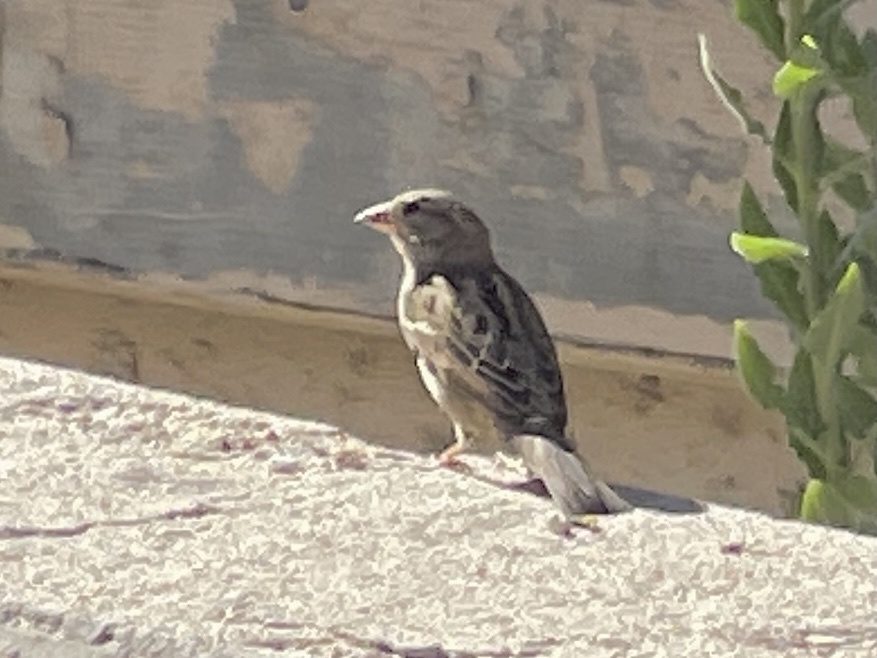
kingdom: Animalia
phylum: Chordata
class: Aves
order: Passeriformes
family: Passeridae
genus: Passer
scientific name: Passer domesticus
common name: House sparrow
